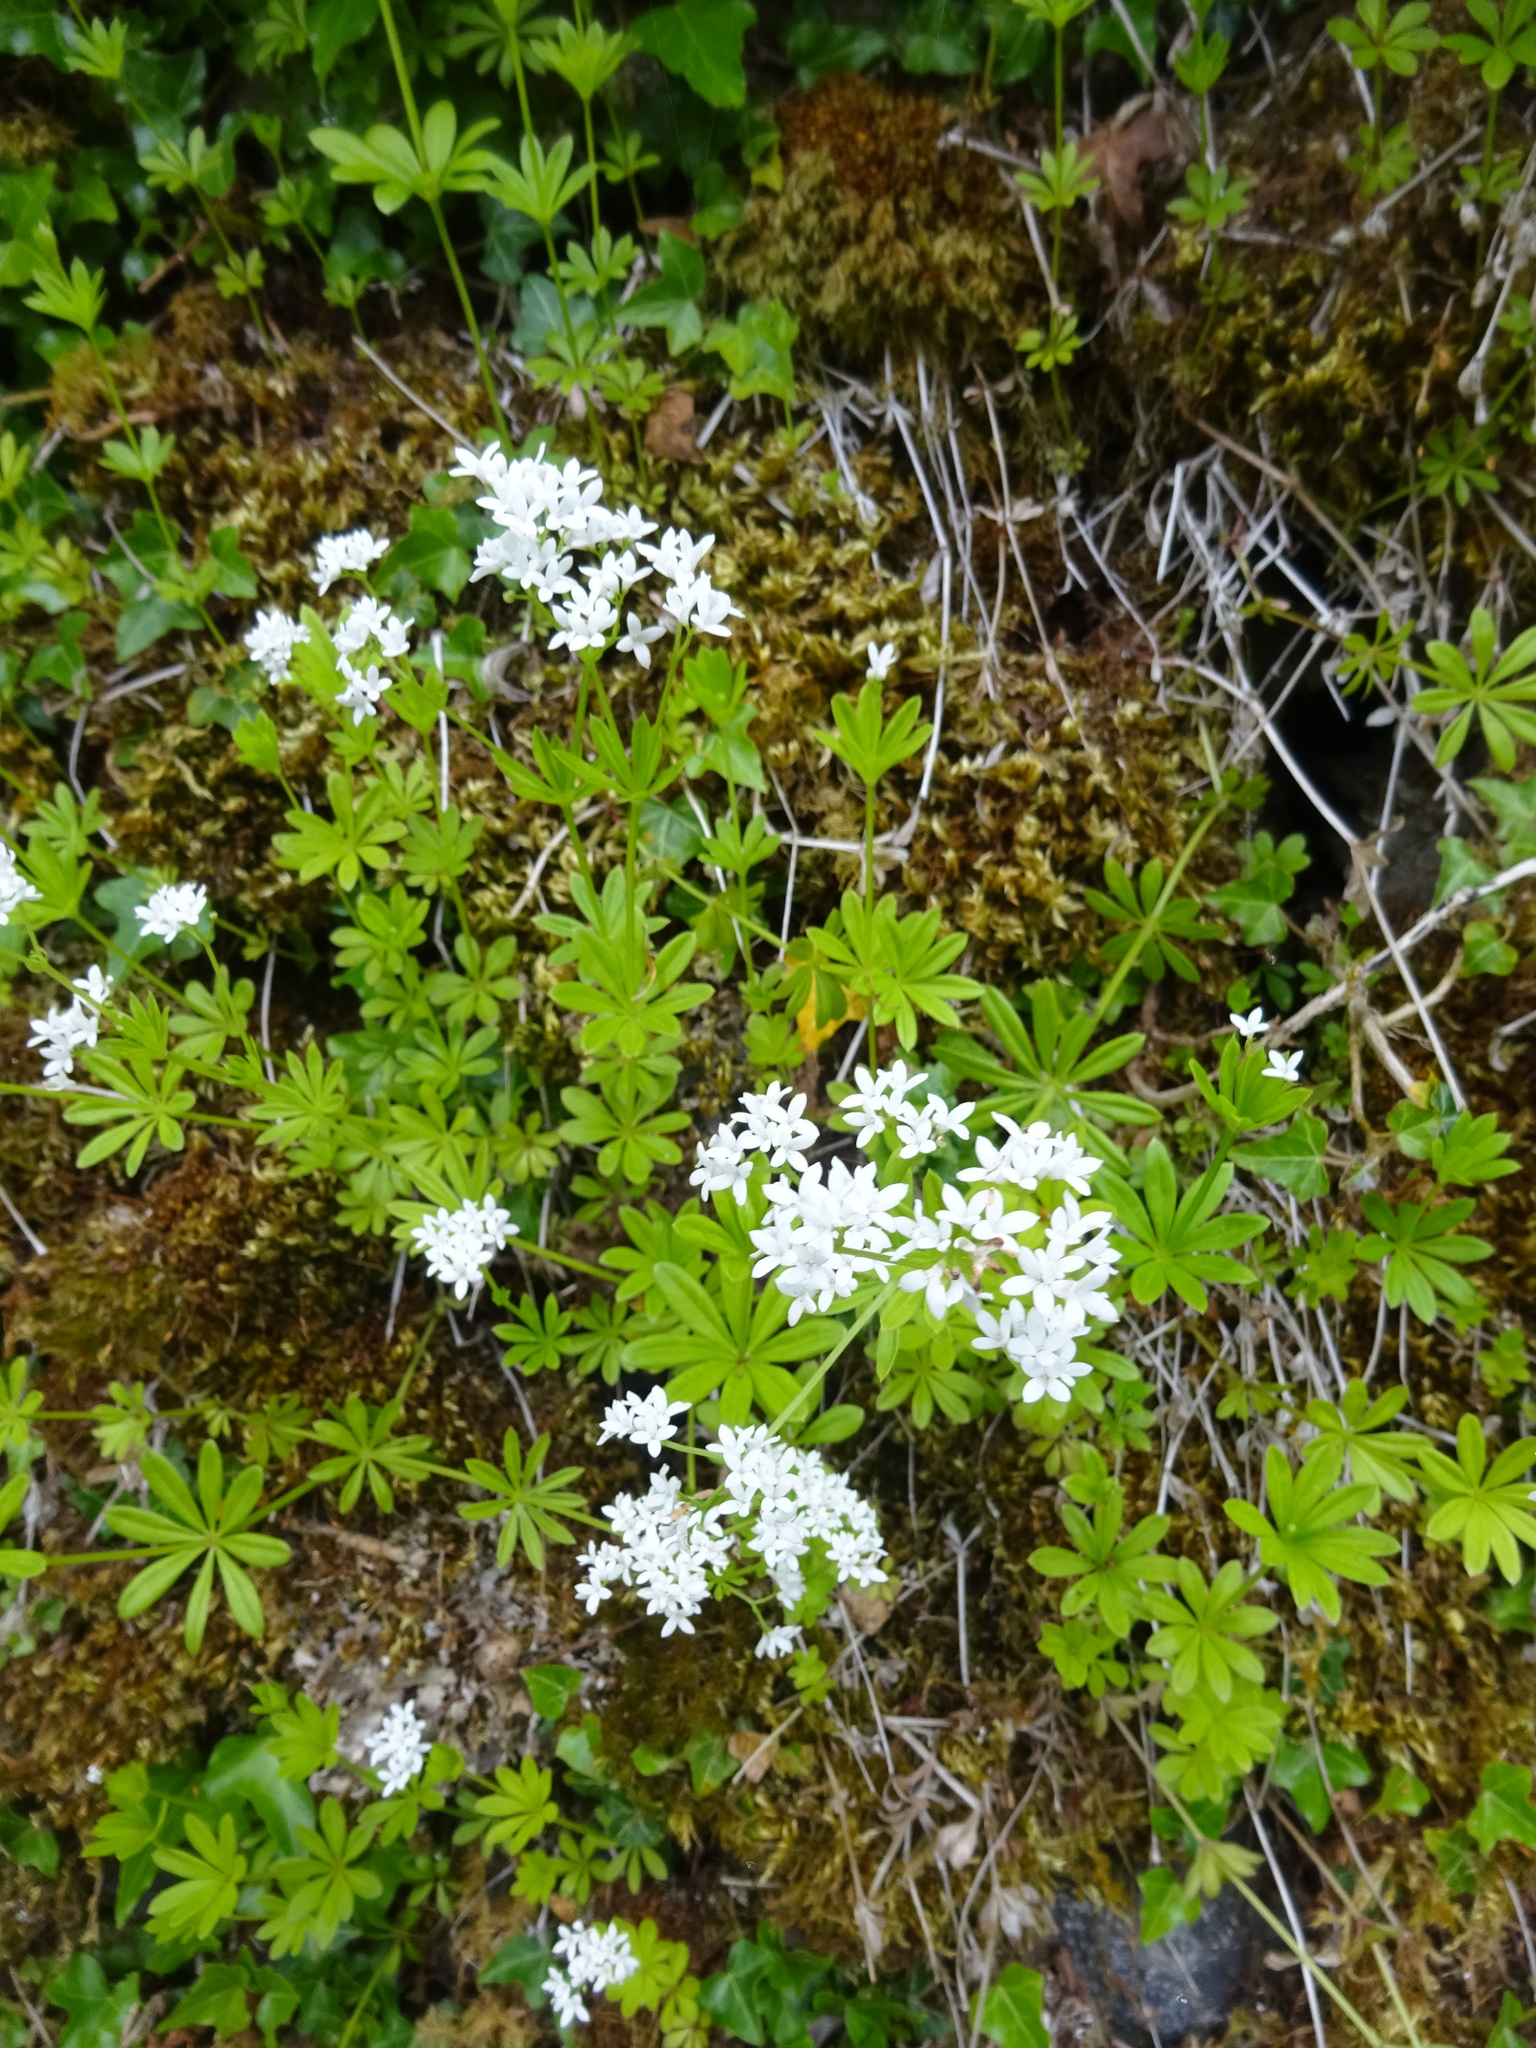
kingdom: Plantae
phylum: Tracheophyta
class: Magnoliopsida
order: Gentianales
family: Rubiaceae
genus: Galium
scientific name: Galium odoratum
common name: Sweet woodruff
